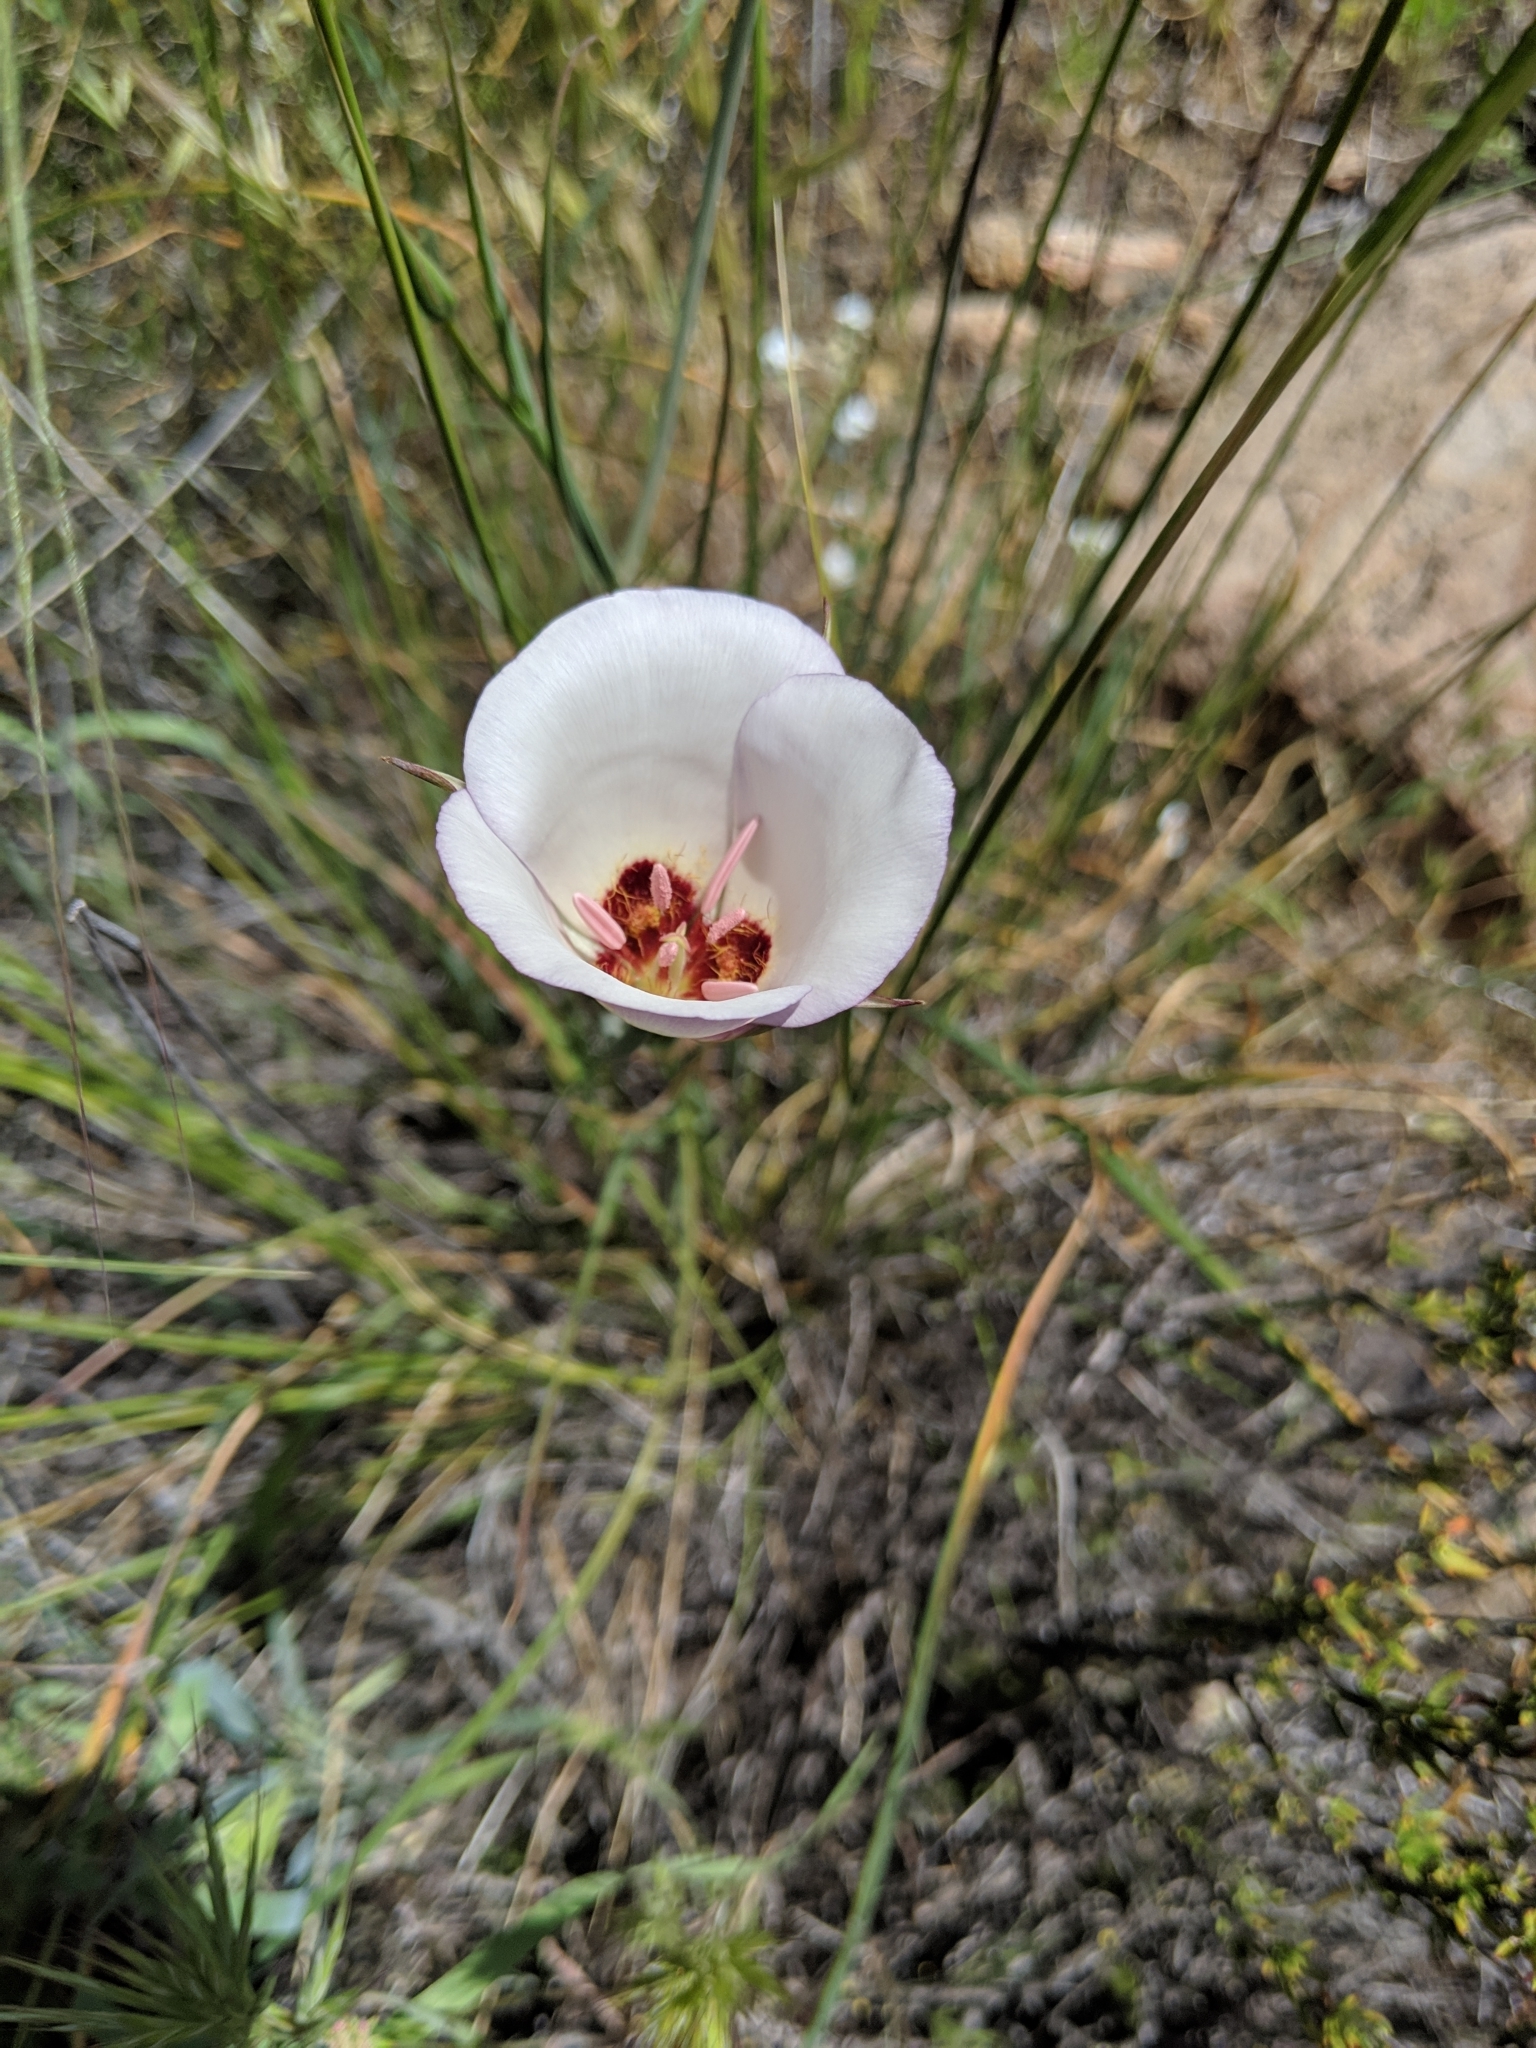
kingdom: Plantae
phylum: Tracheophyta
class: Liliopsida
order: Liliales
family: Liliaceae
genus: Calochortus
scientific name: Calochortus catalinae
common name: Catalina mariposa-lily
